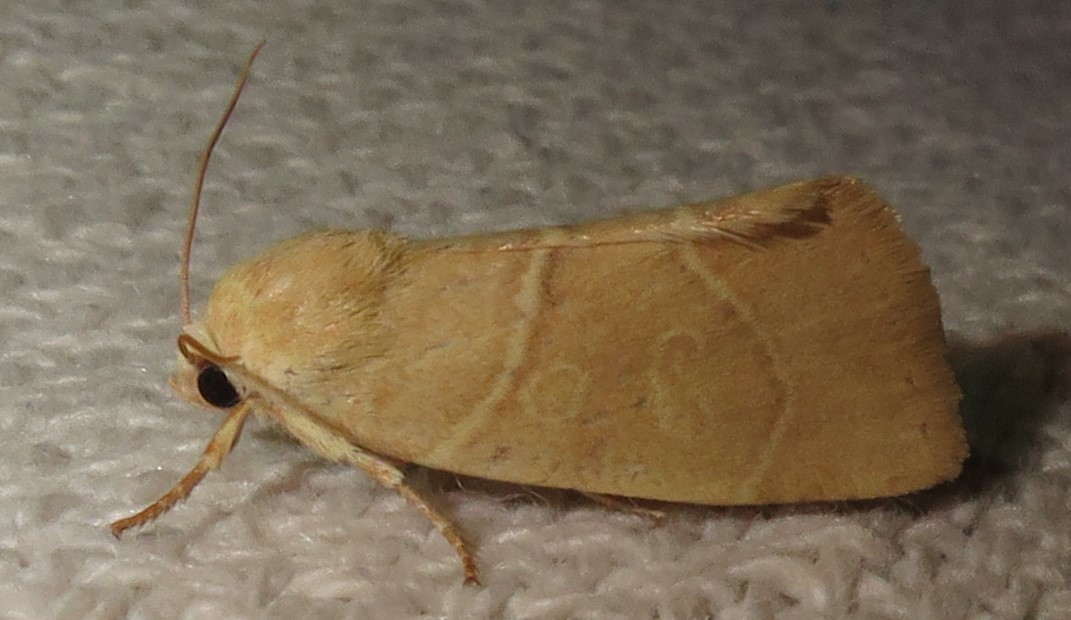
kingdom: Animalia
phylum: Arthropoda
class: Insecta
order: Lepidoptera
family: Noctuidae
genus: Cosmia
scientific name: Cosmia calami
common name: American dun-bar moth
